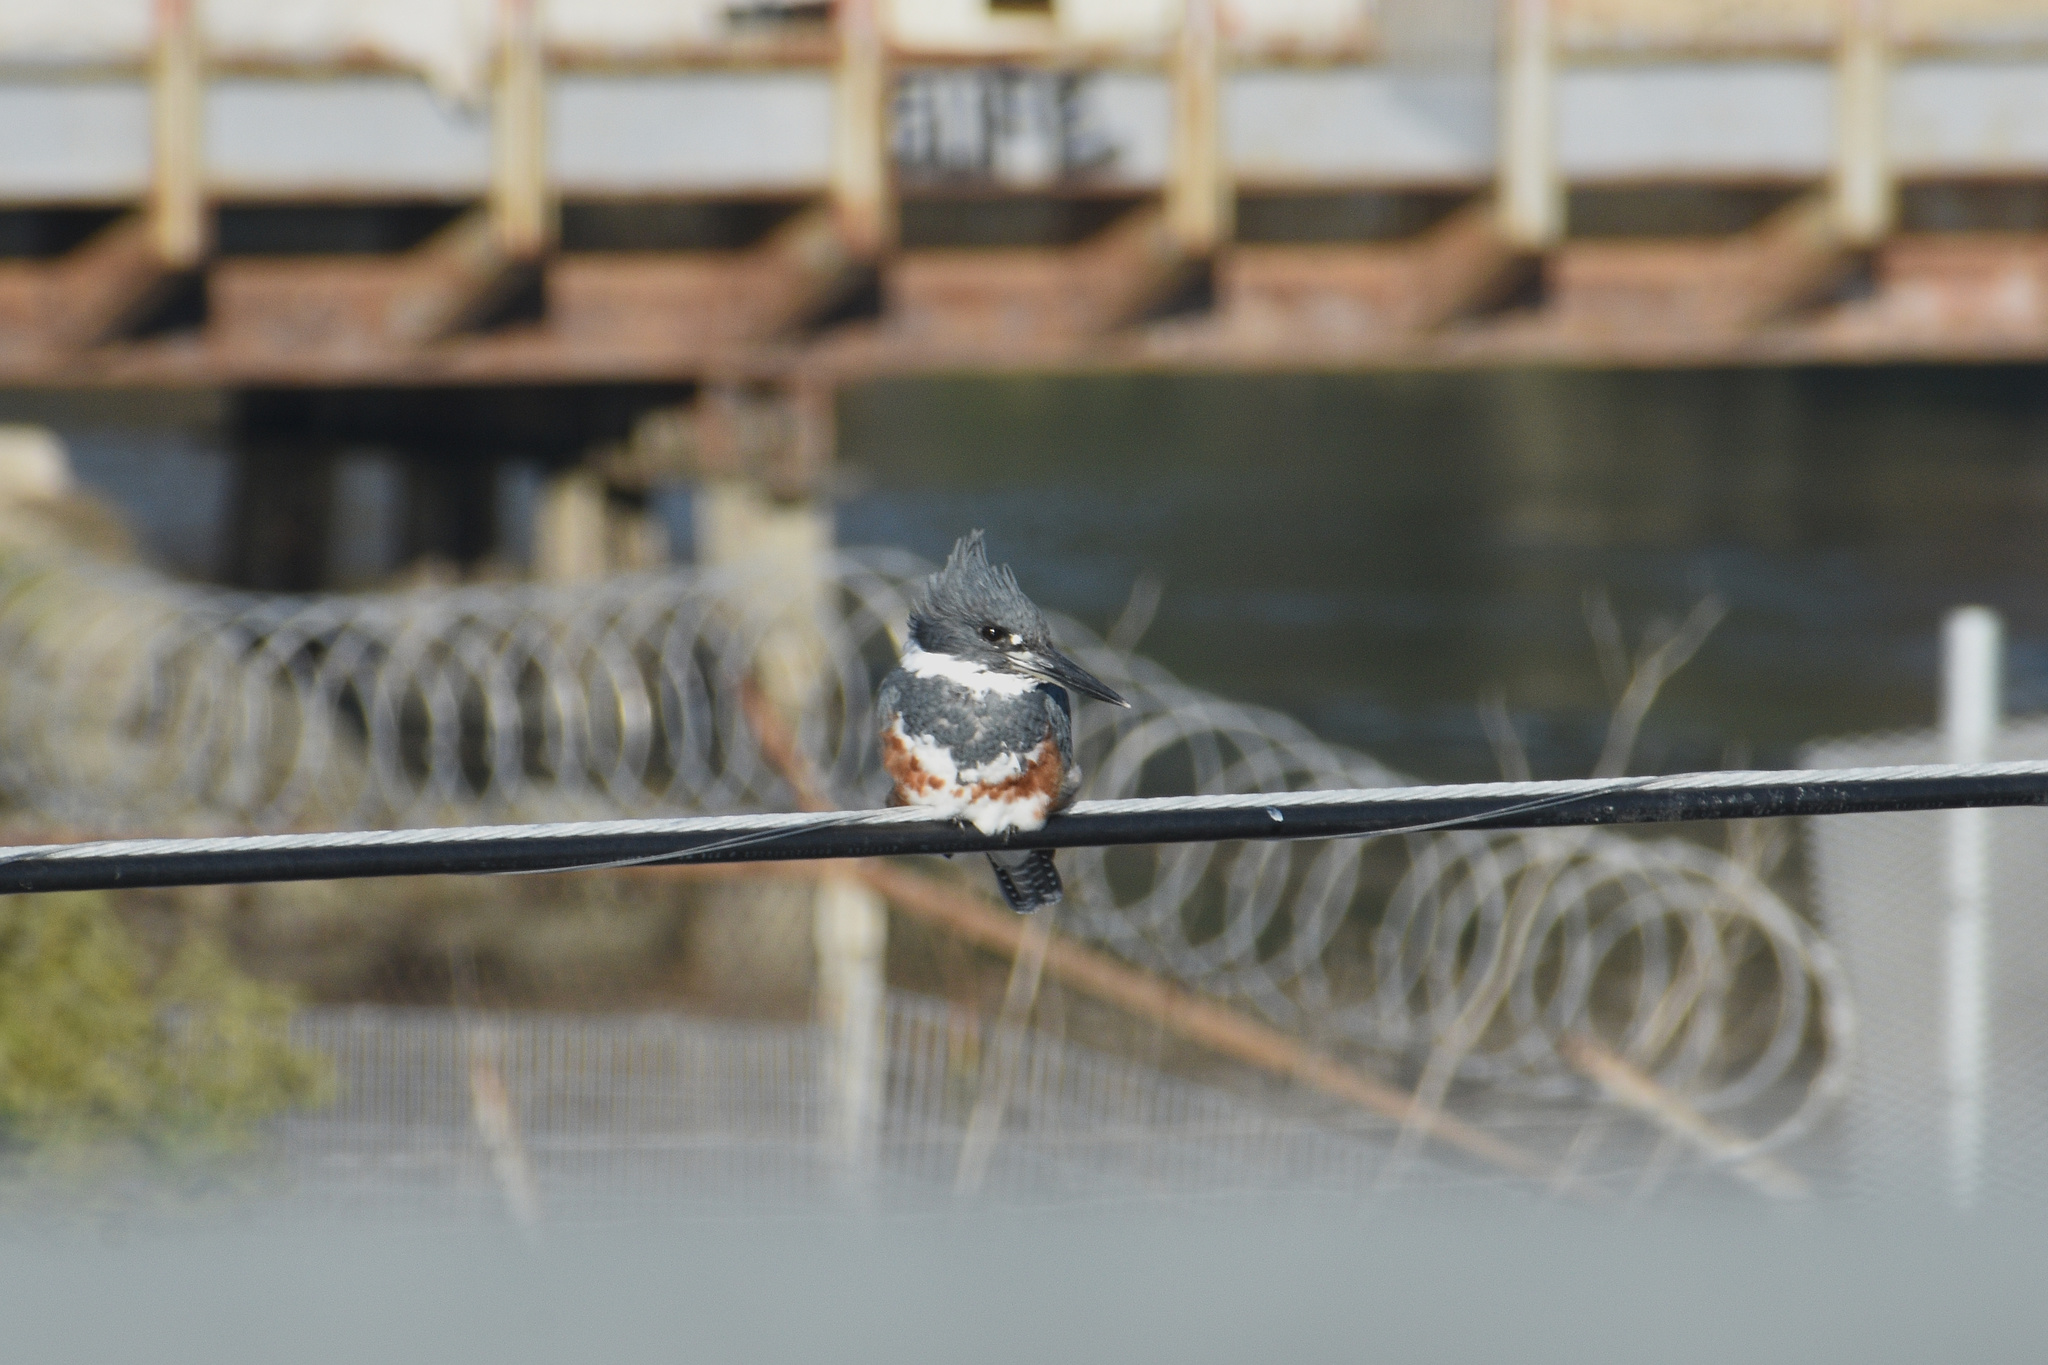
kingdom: Animalia
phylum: Chordata
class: Aves
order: Coraciiformes
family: Alcedinidae
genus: Megaceryle
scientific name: Megaceryle alcyon
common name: Belted kingfisher
